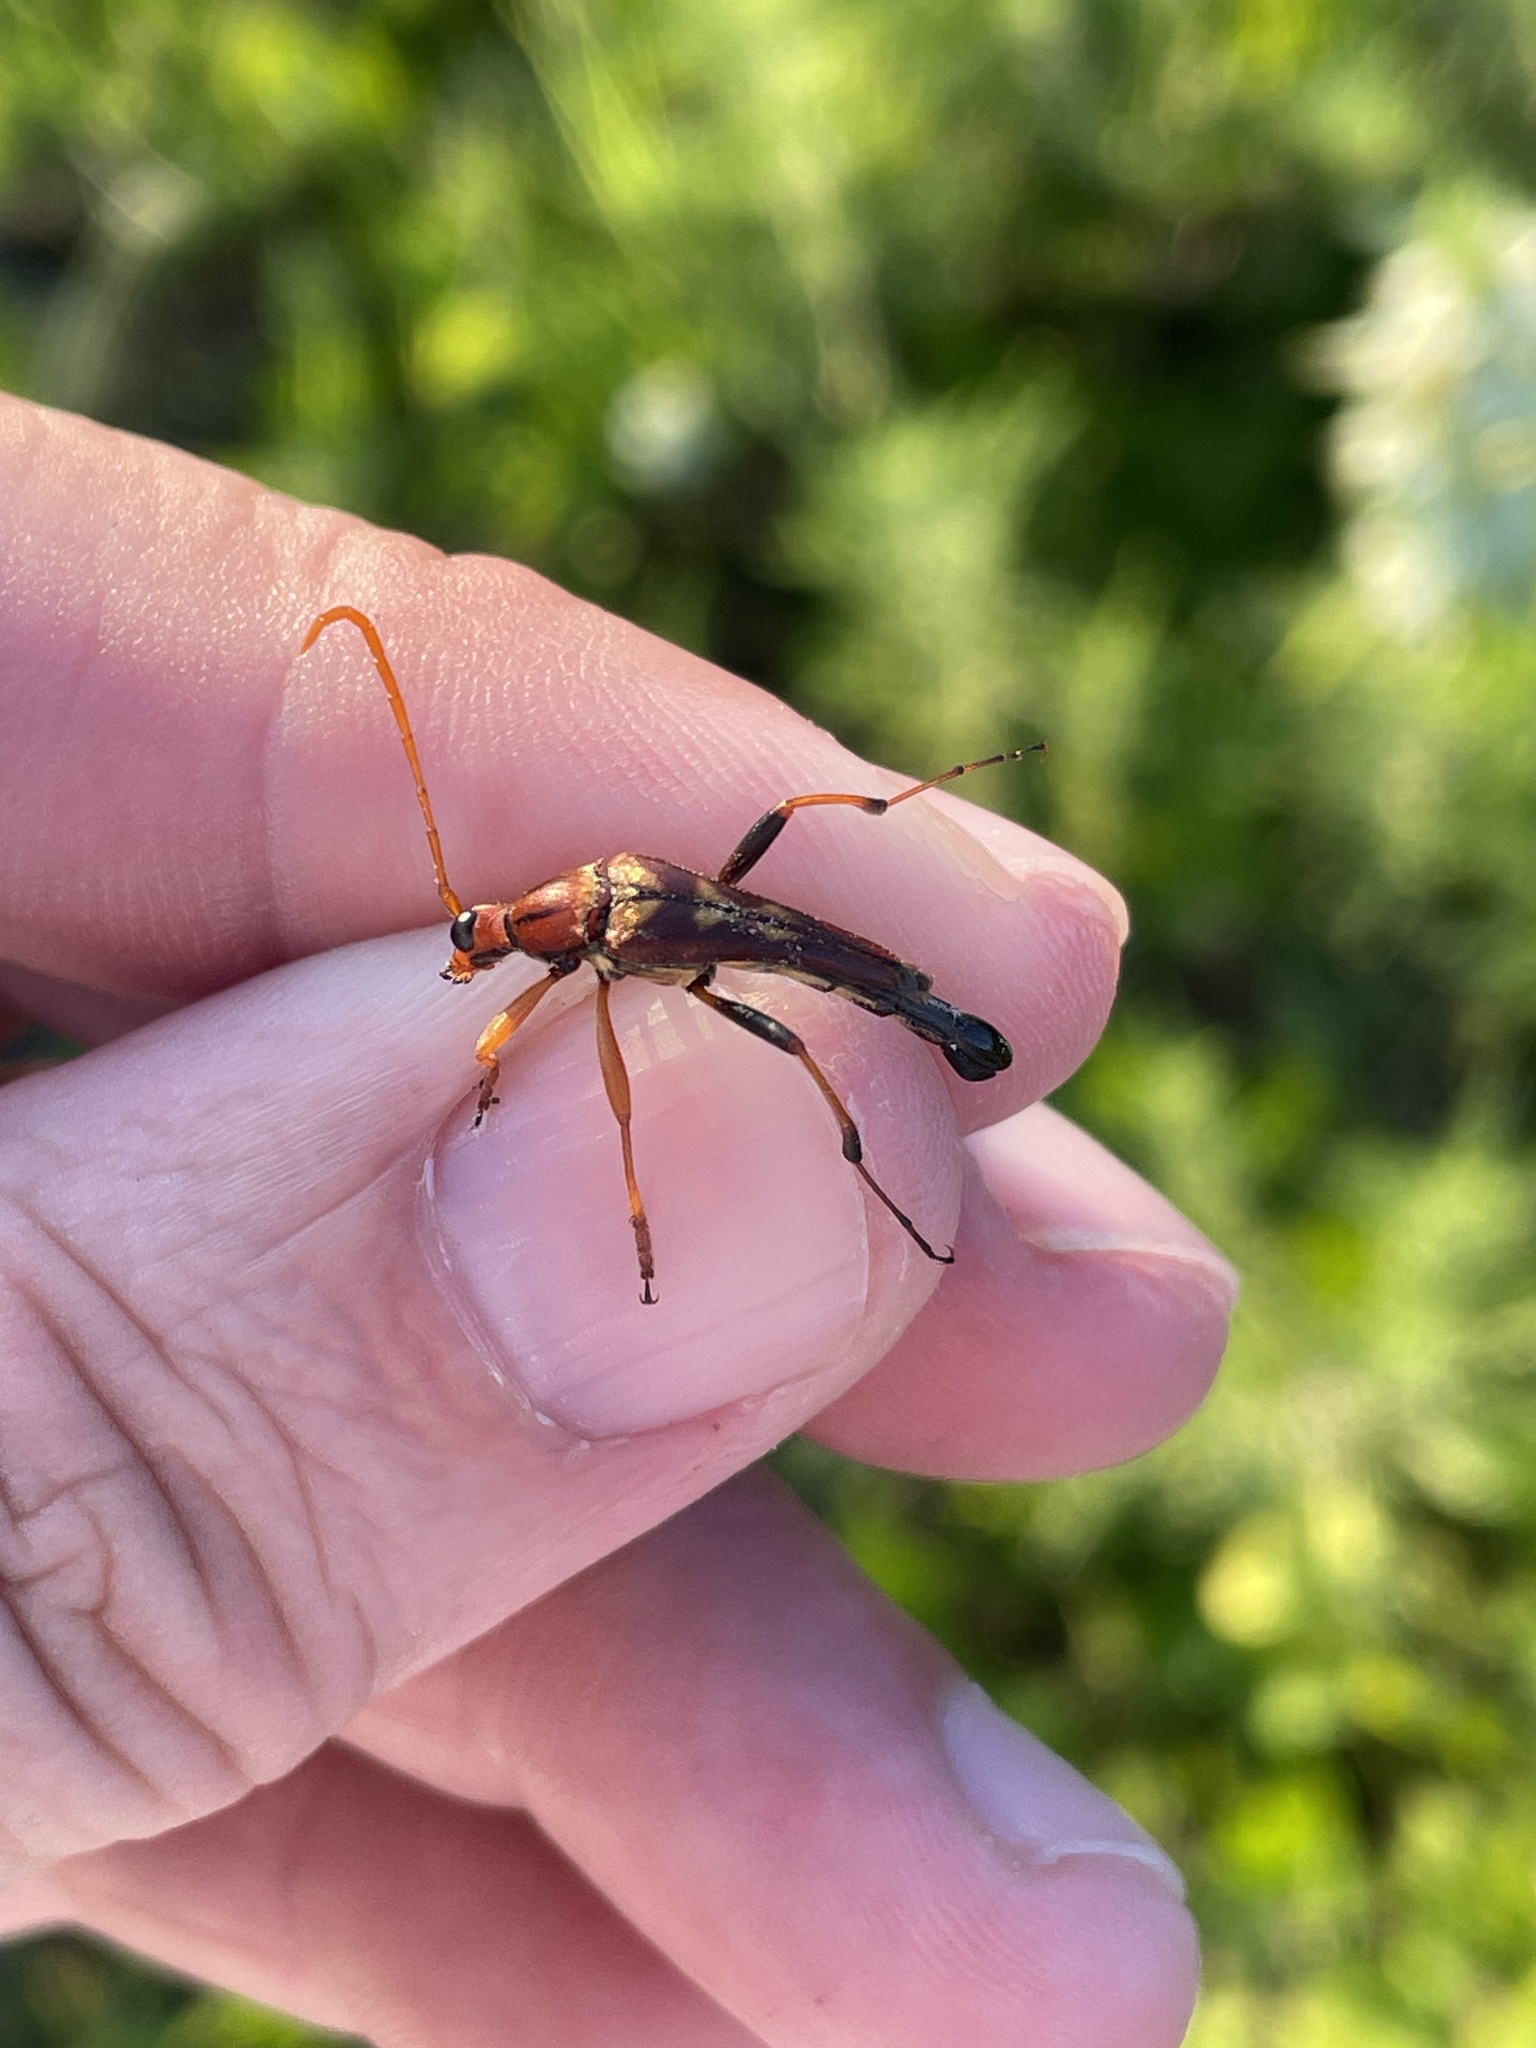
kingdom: Animalia
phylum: Arthropoda
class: Insecta
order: Coleoptera
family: Cerambycidae
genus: Strangalia
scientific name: Strangalia virilis
